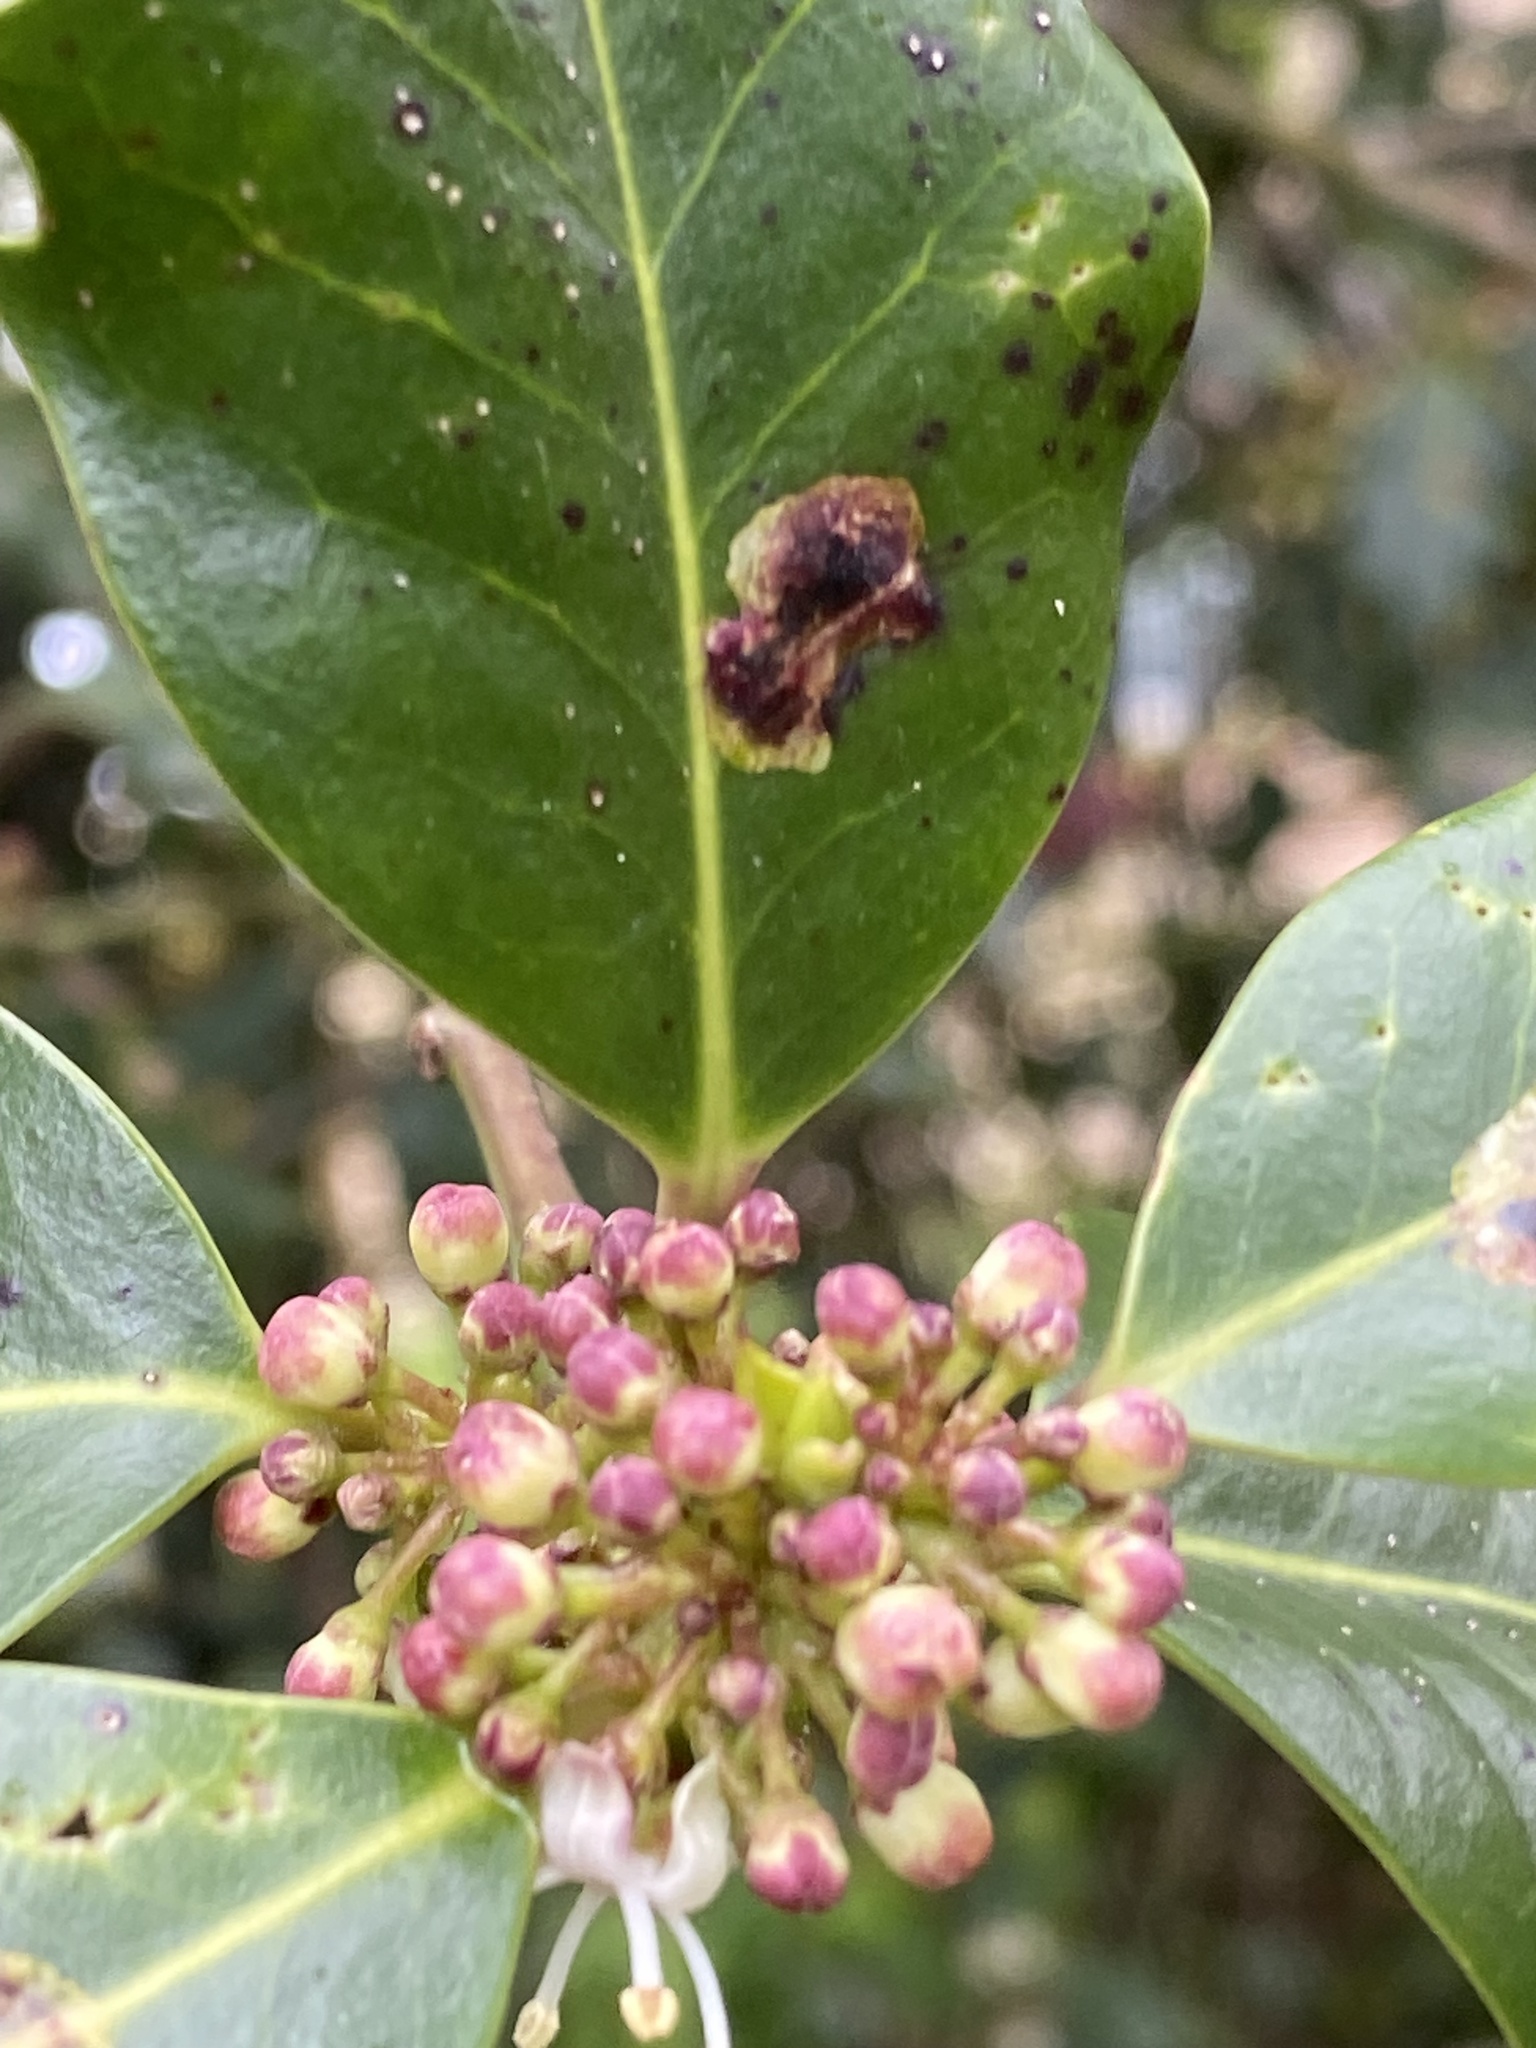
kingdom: Animalia
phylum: Arthropoda
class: Insecta
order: Diptera
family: Agromyzidae
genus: Phytomyza
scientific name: Phytomyza ilicis
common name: Holly leafminer
